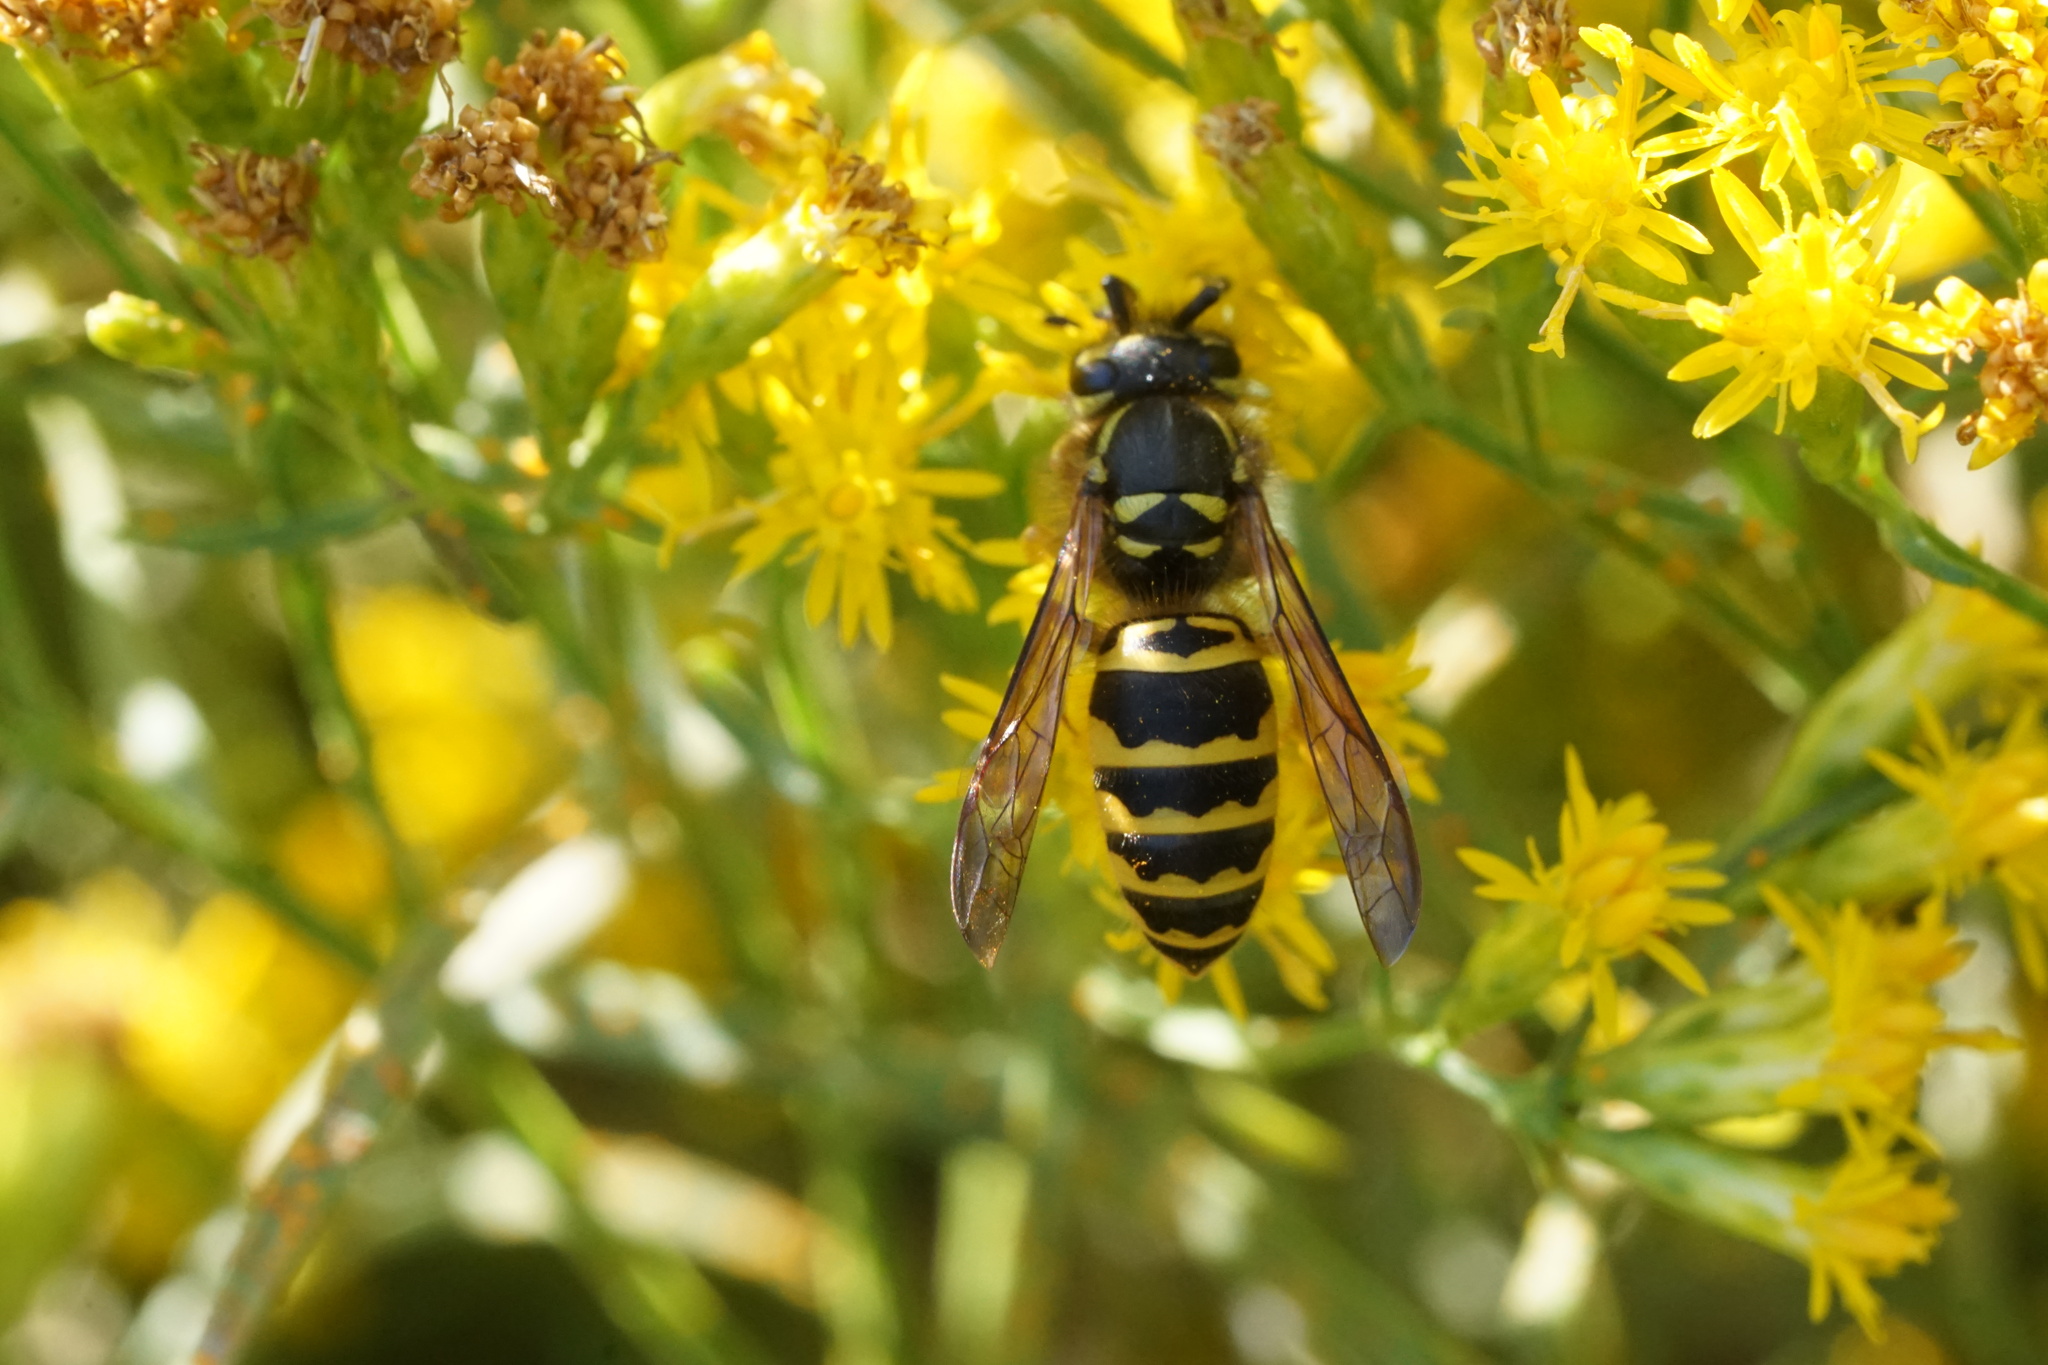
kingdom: Animalia
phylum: Arthropoda
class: Insecta
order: Hymenoptera
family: Vespidae
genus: Vespula
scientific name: Vespula maculifrons
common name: Eastern yellowjacket
